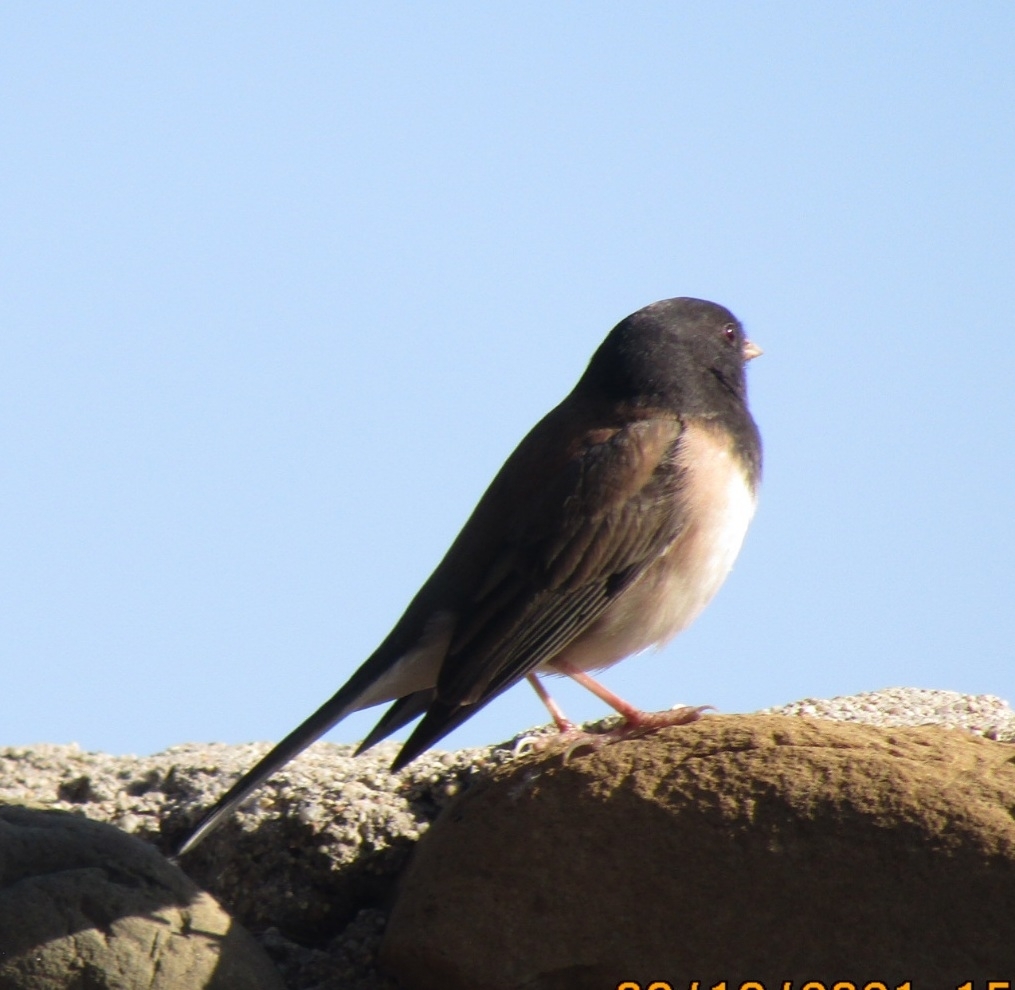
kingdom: Animalia
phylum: Chordata
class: Aves
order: Passeriformes
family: Passerellidae
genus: Junco
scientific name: Junco hyemalis
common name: Dark-eyed junco
